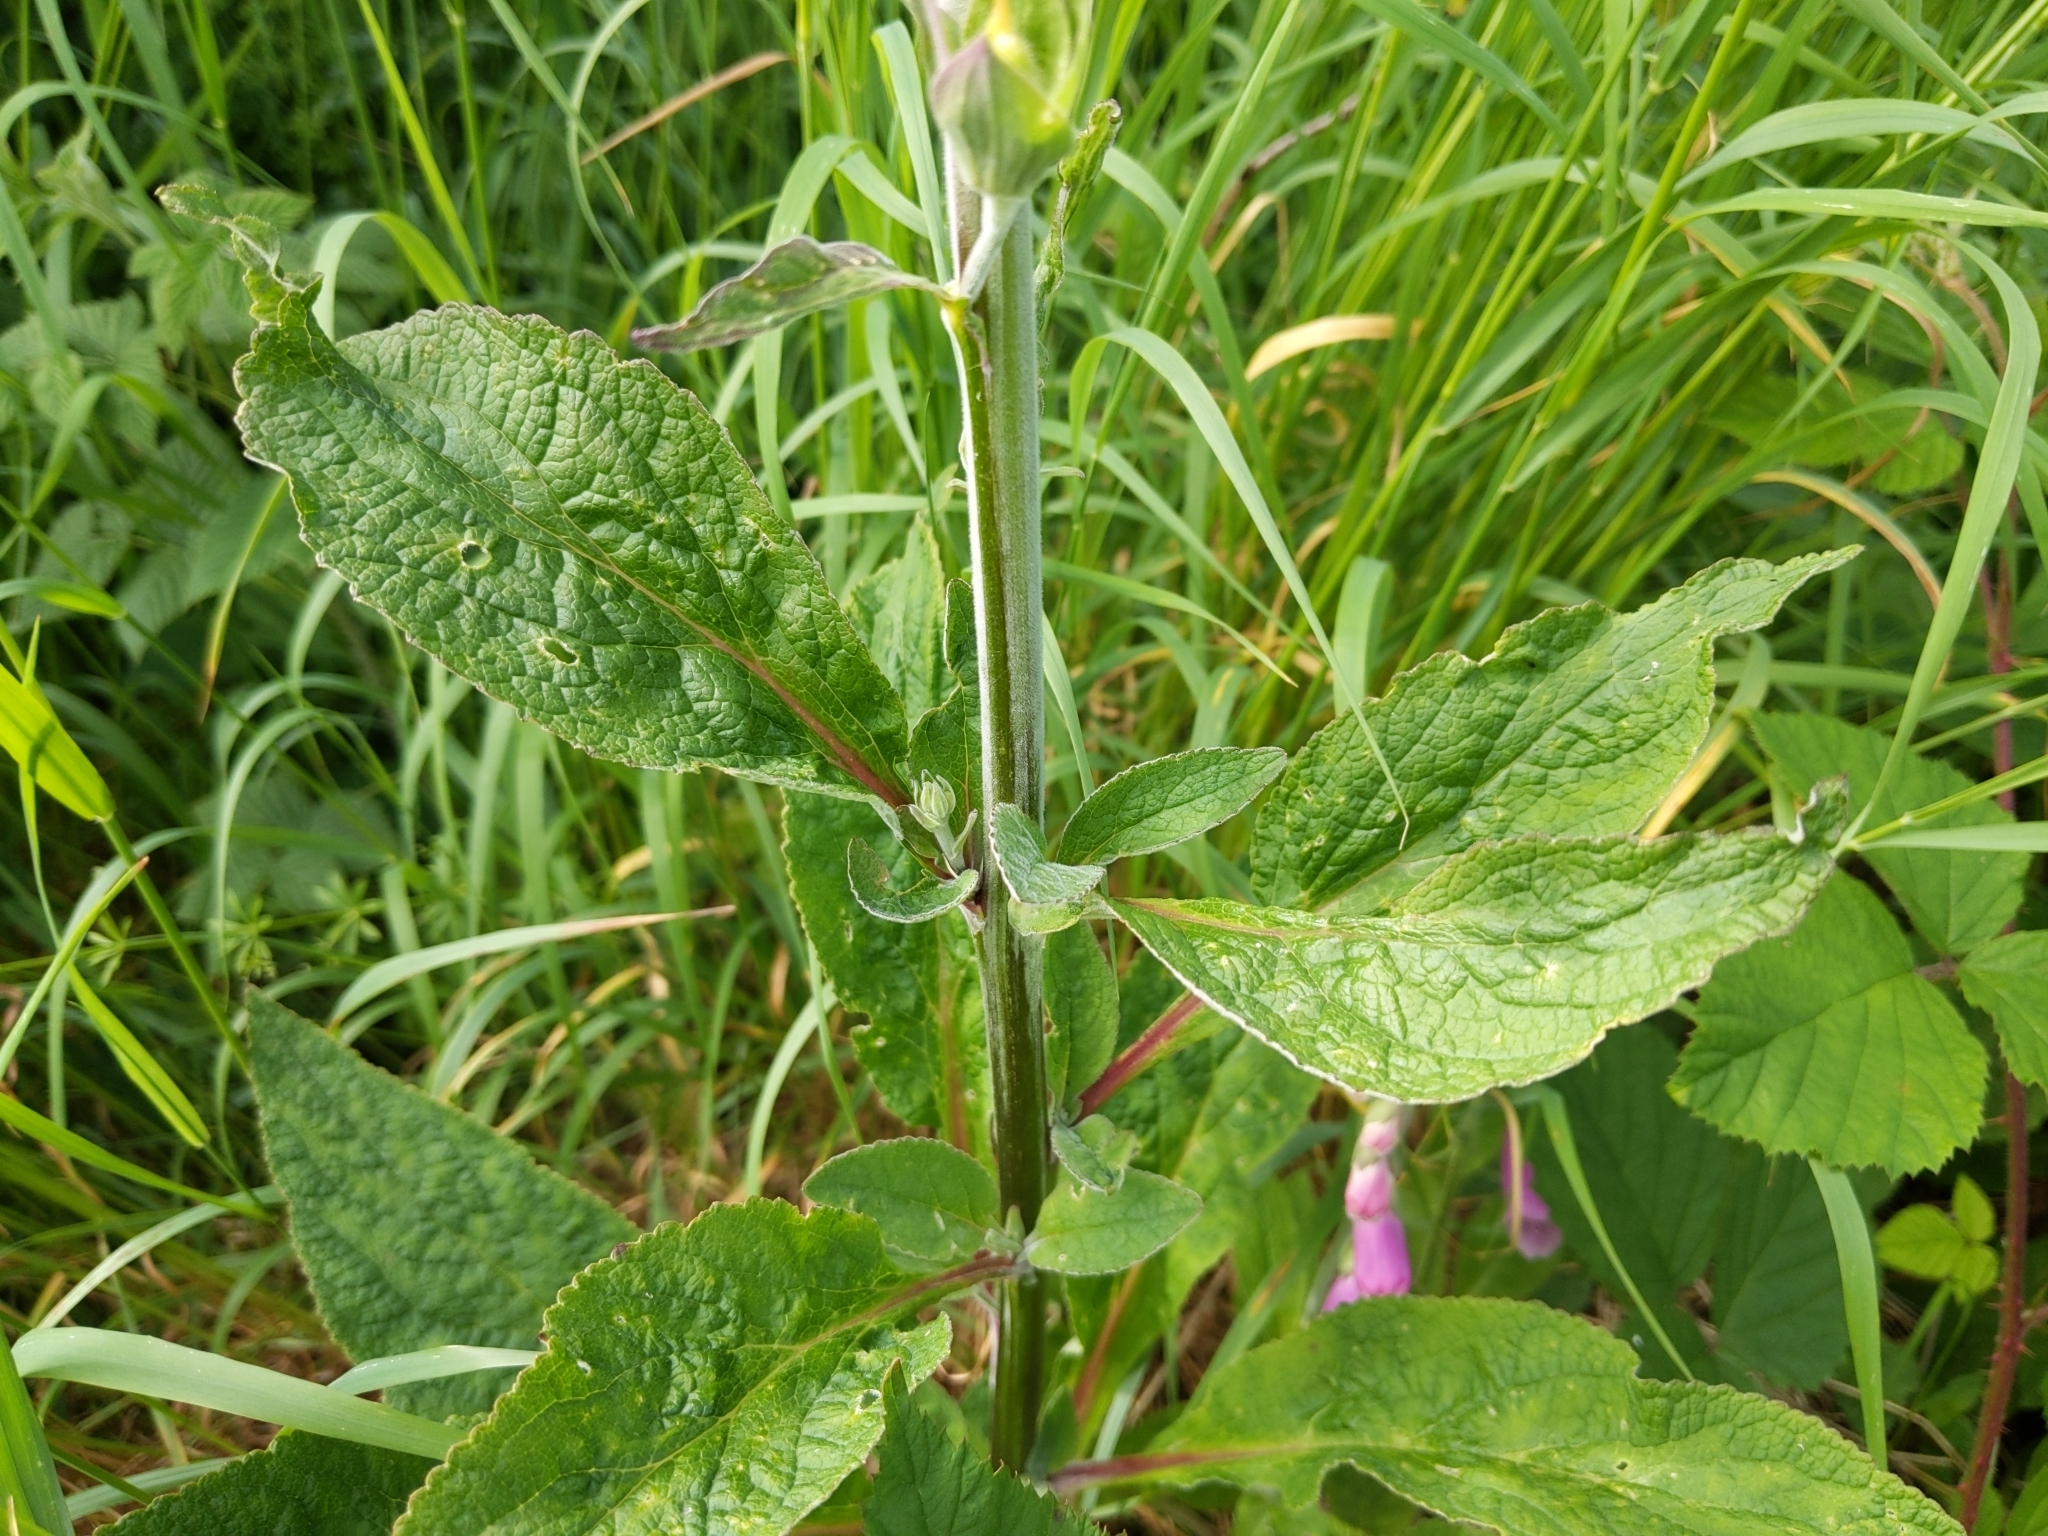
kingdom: Plantae
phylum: Tracheophyta
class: Magnoliopsida
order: Lamiales
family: Plantaginaceae
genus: Digitalis
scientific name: Digitalis purpurea
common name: Foxglove
